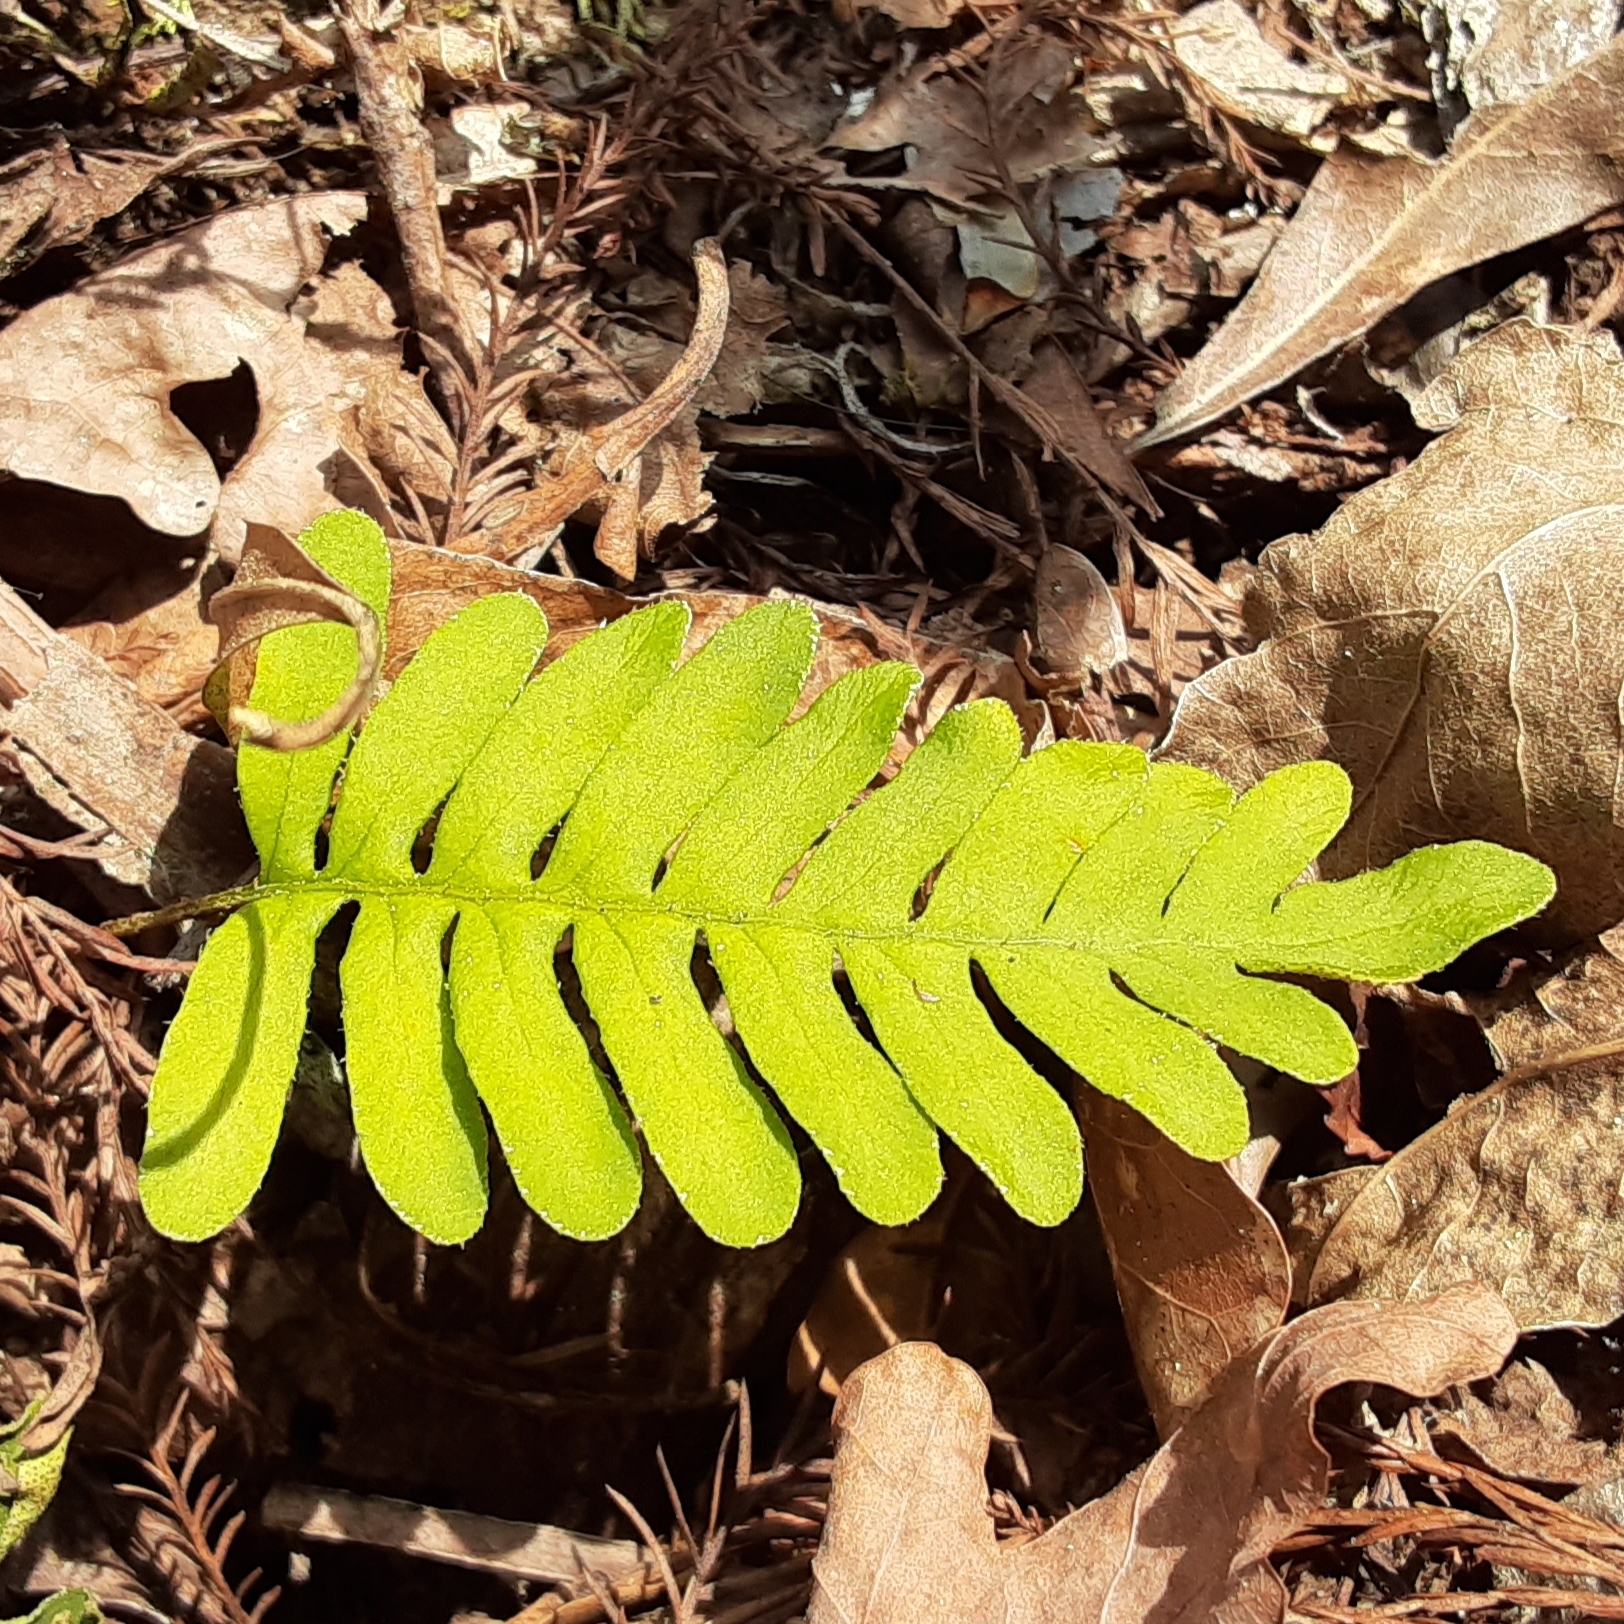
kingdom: Plantae
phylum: Tracheophyta
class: Polypodiopsida
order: Polypodiales
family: Polypodiaceae
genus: Pleopeltis
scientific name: Pleopeltis michauxiana
